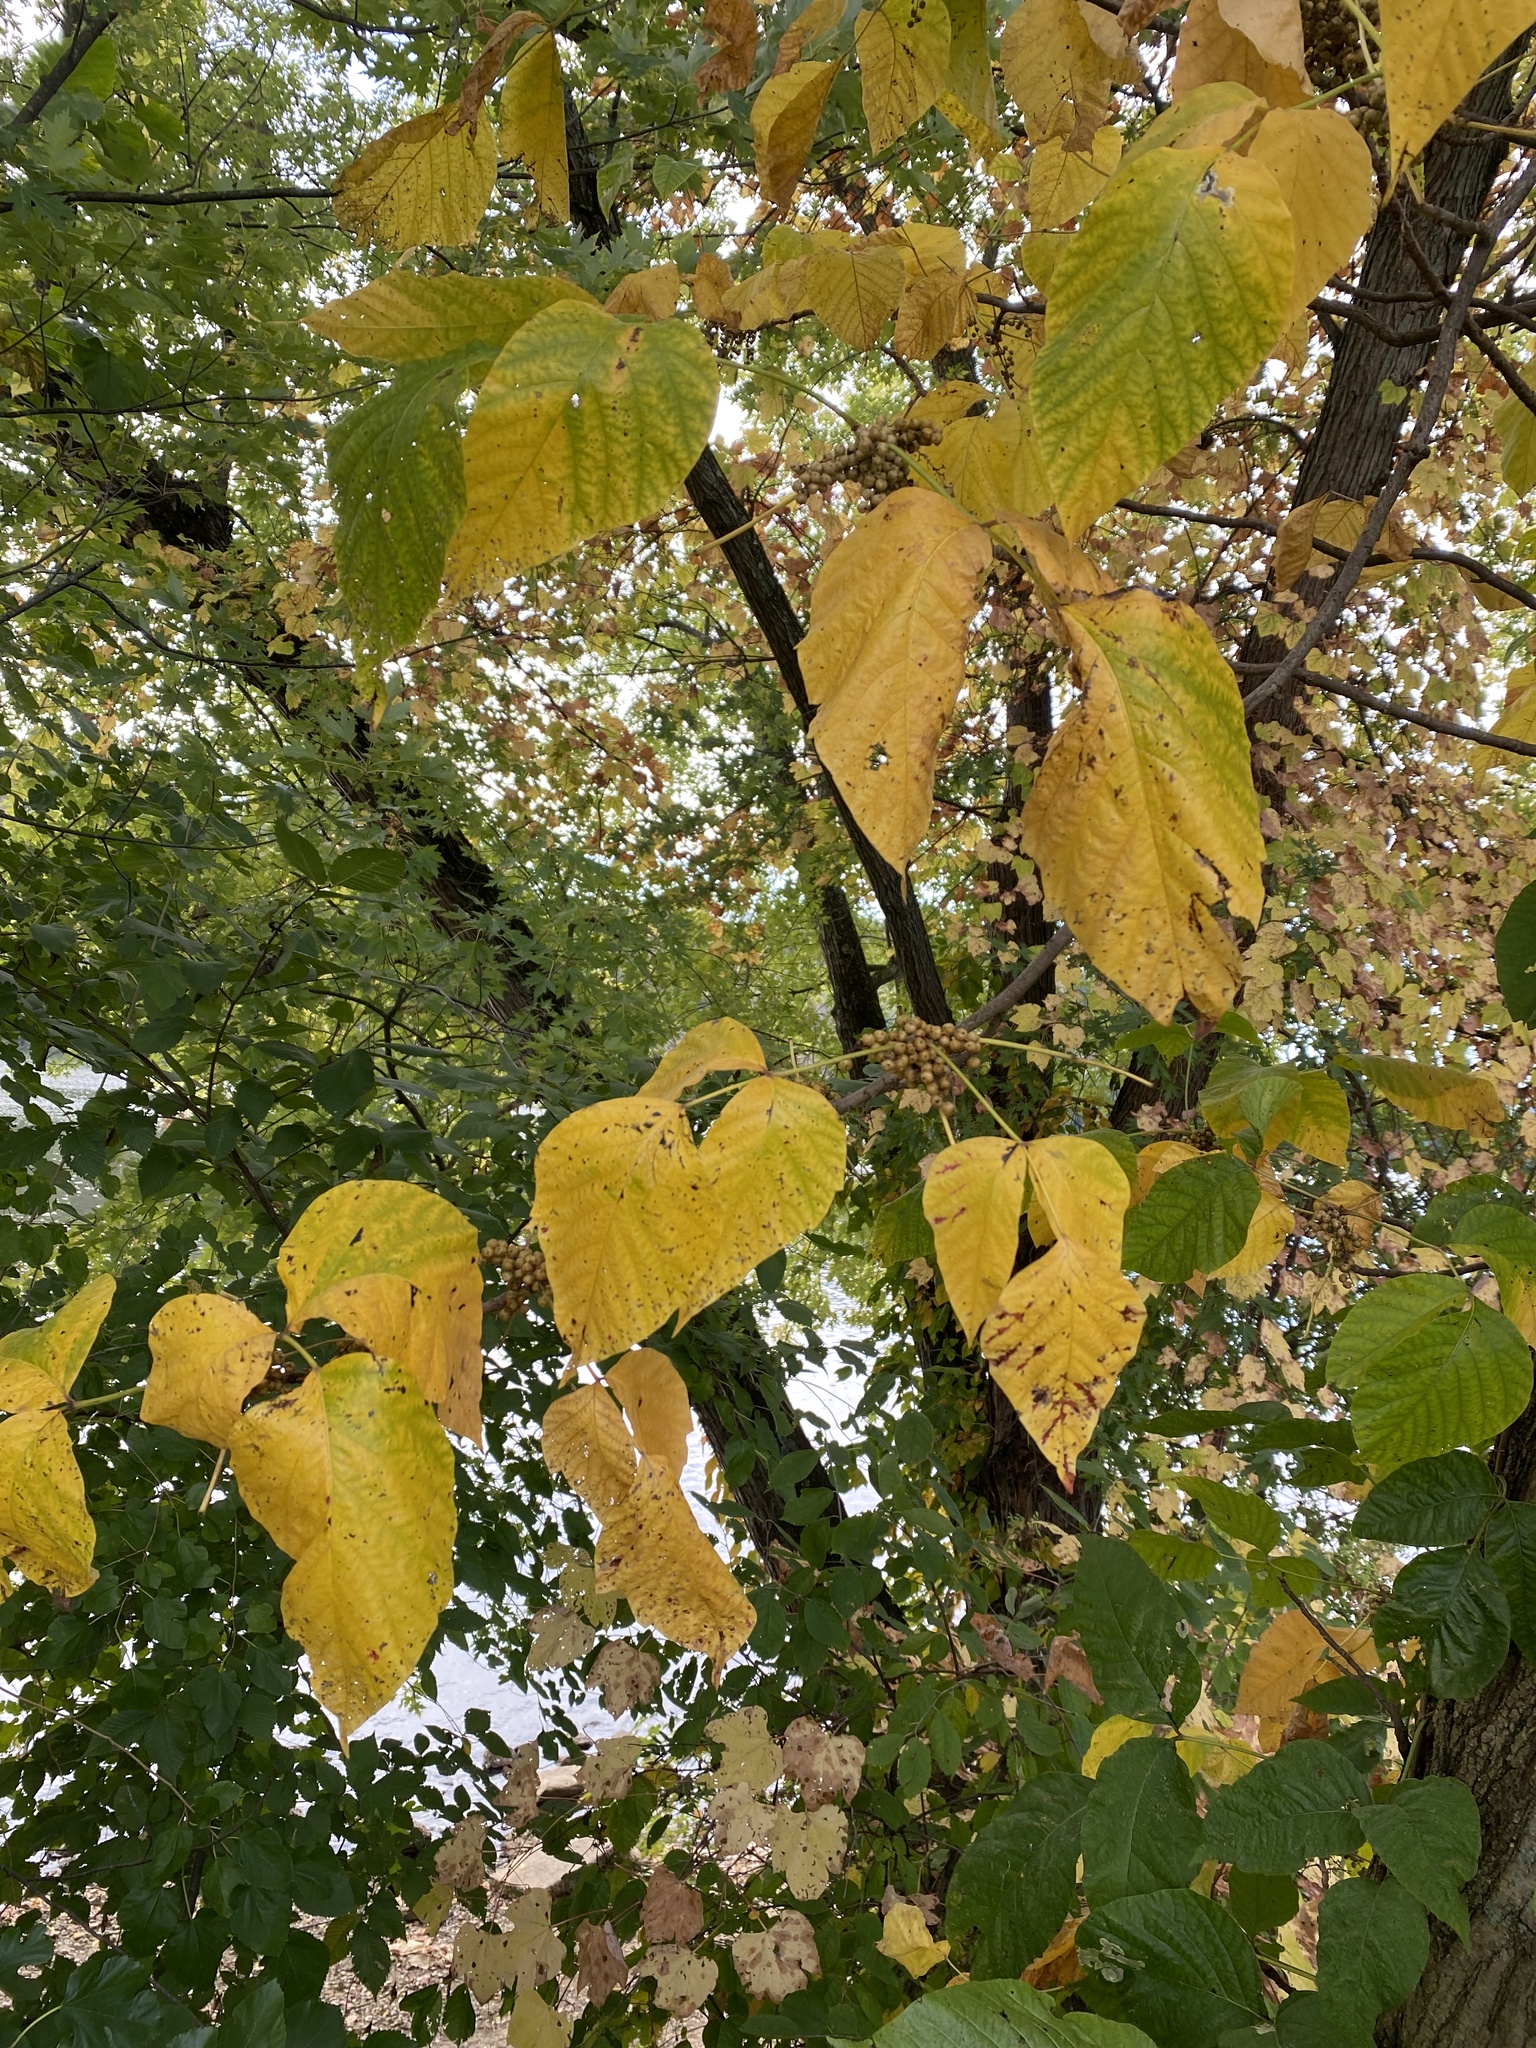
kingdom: Plantae
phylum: Tracheophyta
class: Magnoliopsida
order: Sapindales
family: Anacardiaceae
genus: Toxicodendron
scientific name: Toxicodendron radicans
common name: Poison ivy
